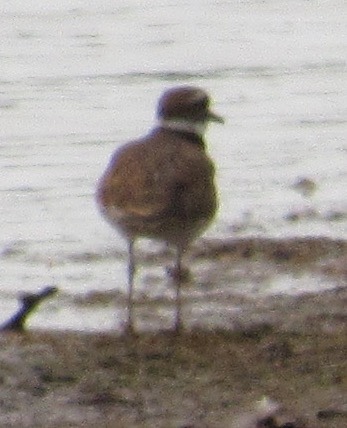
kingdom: Animalia
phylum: Chordata
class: Aves
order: Charadriiformes
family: Charadriidae
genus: Charadrius
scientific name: Charadrius vociferus
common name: Killdeer
